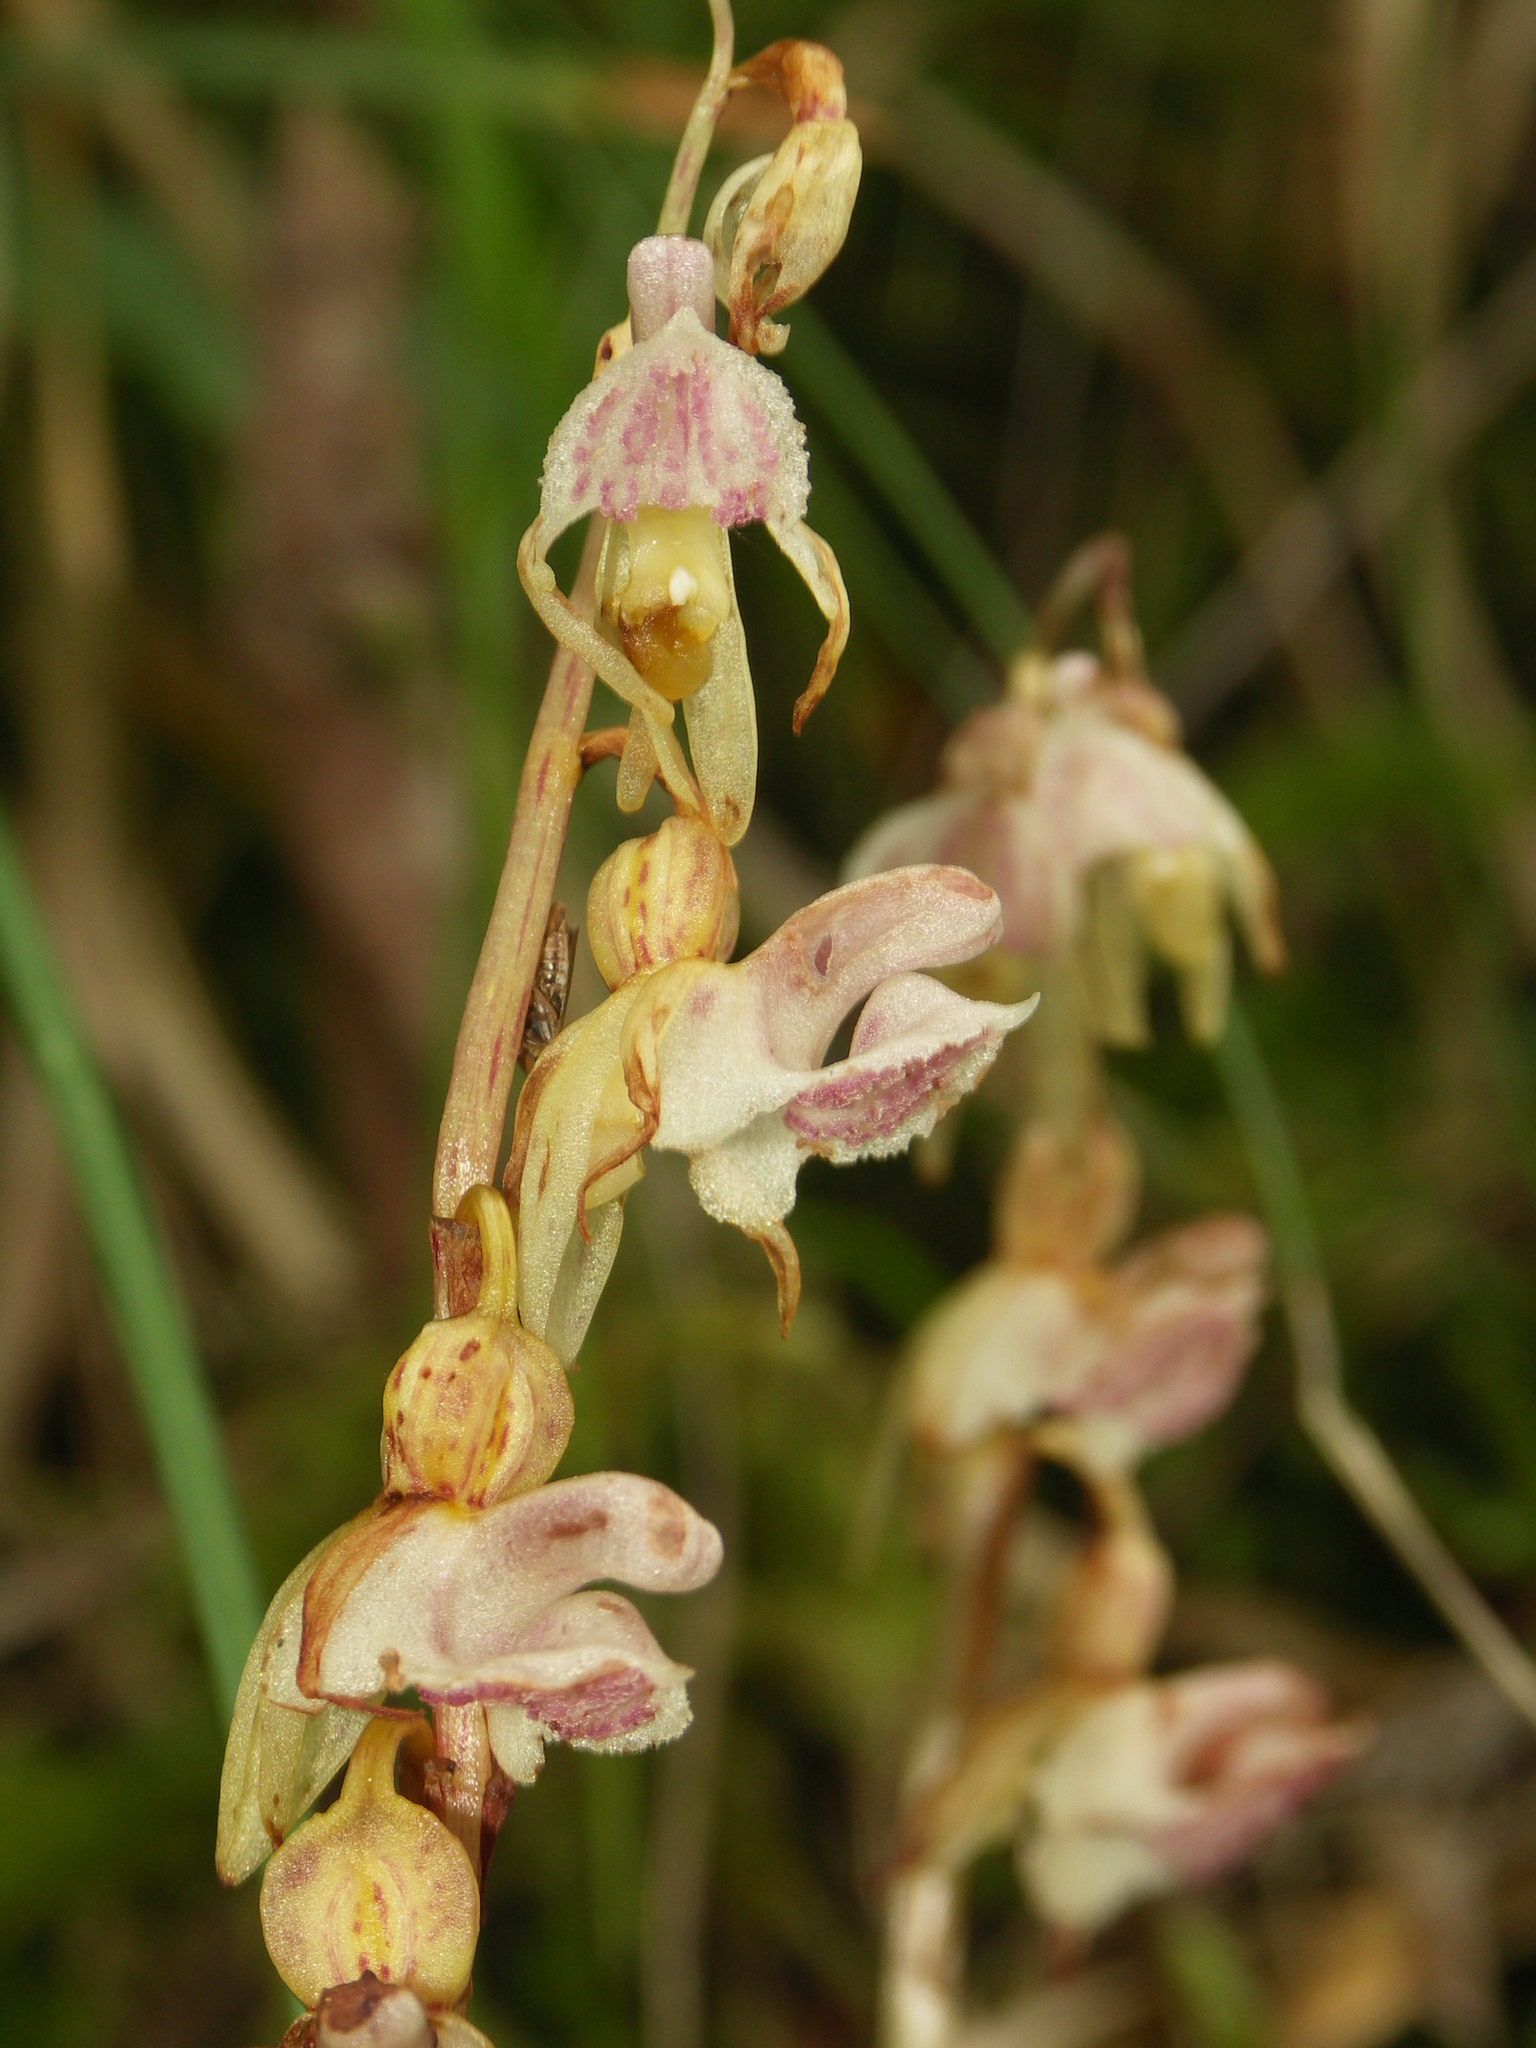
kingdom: Plantae
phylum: Tracheophyta
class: Liliopsida
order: Asparagales
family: Orchidaceae
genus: Epipogium
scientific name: Epipogium aphyllum
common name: Ghost orchid
